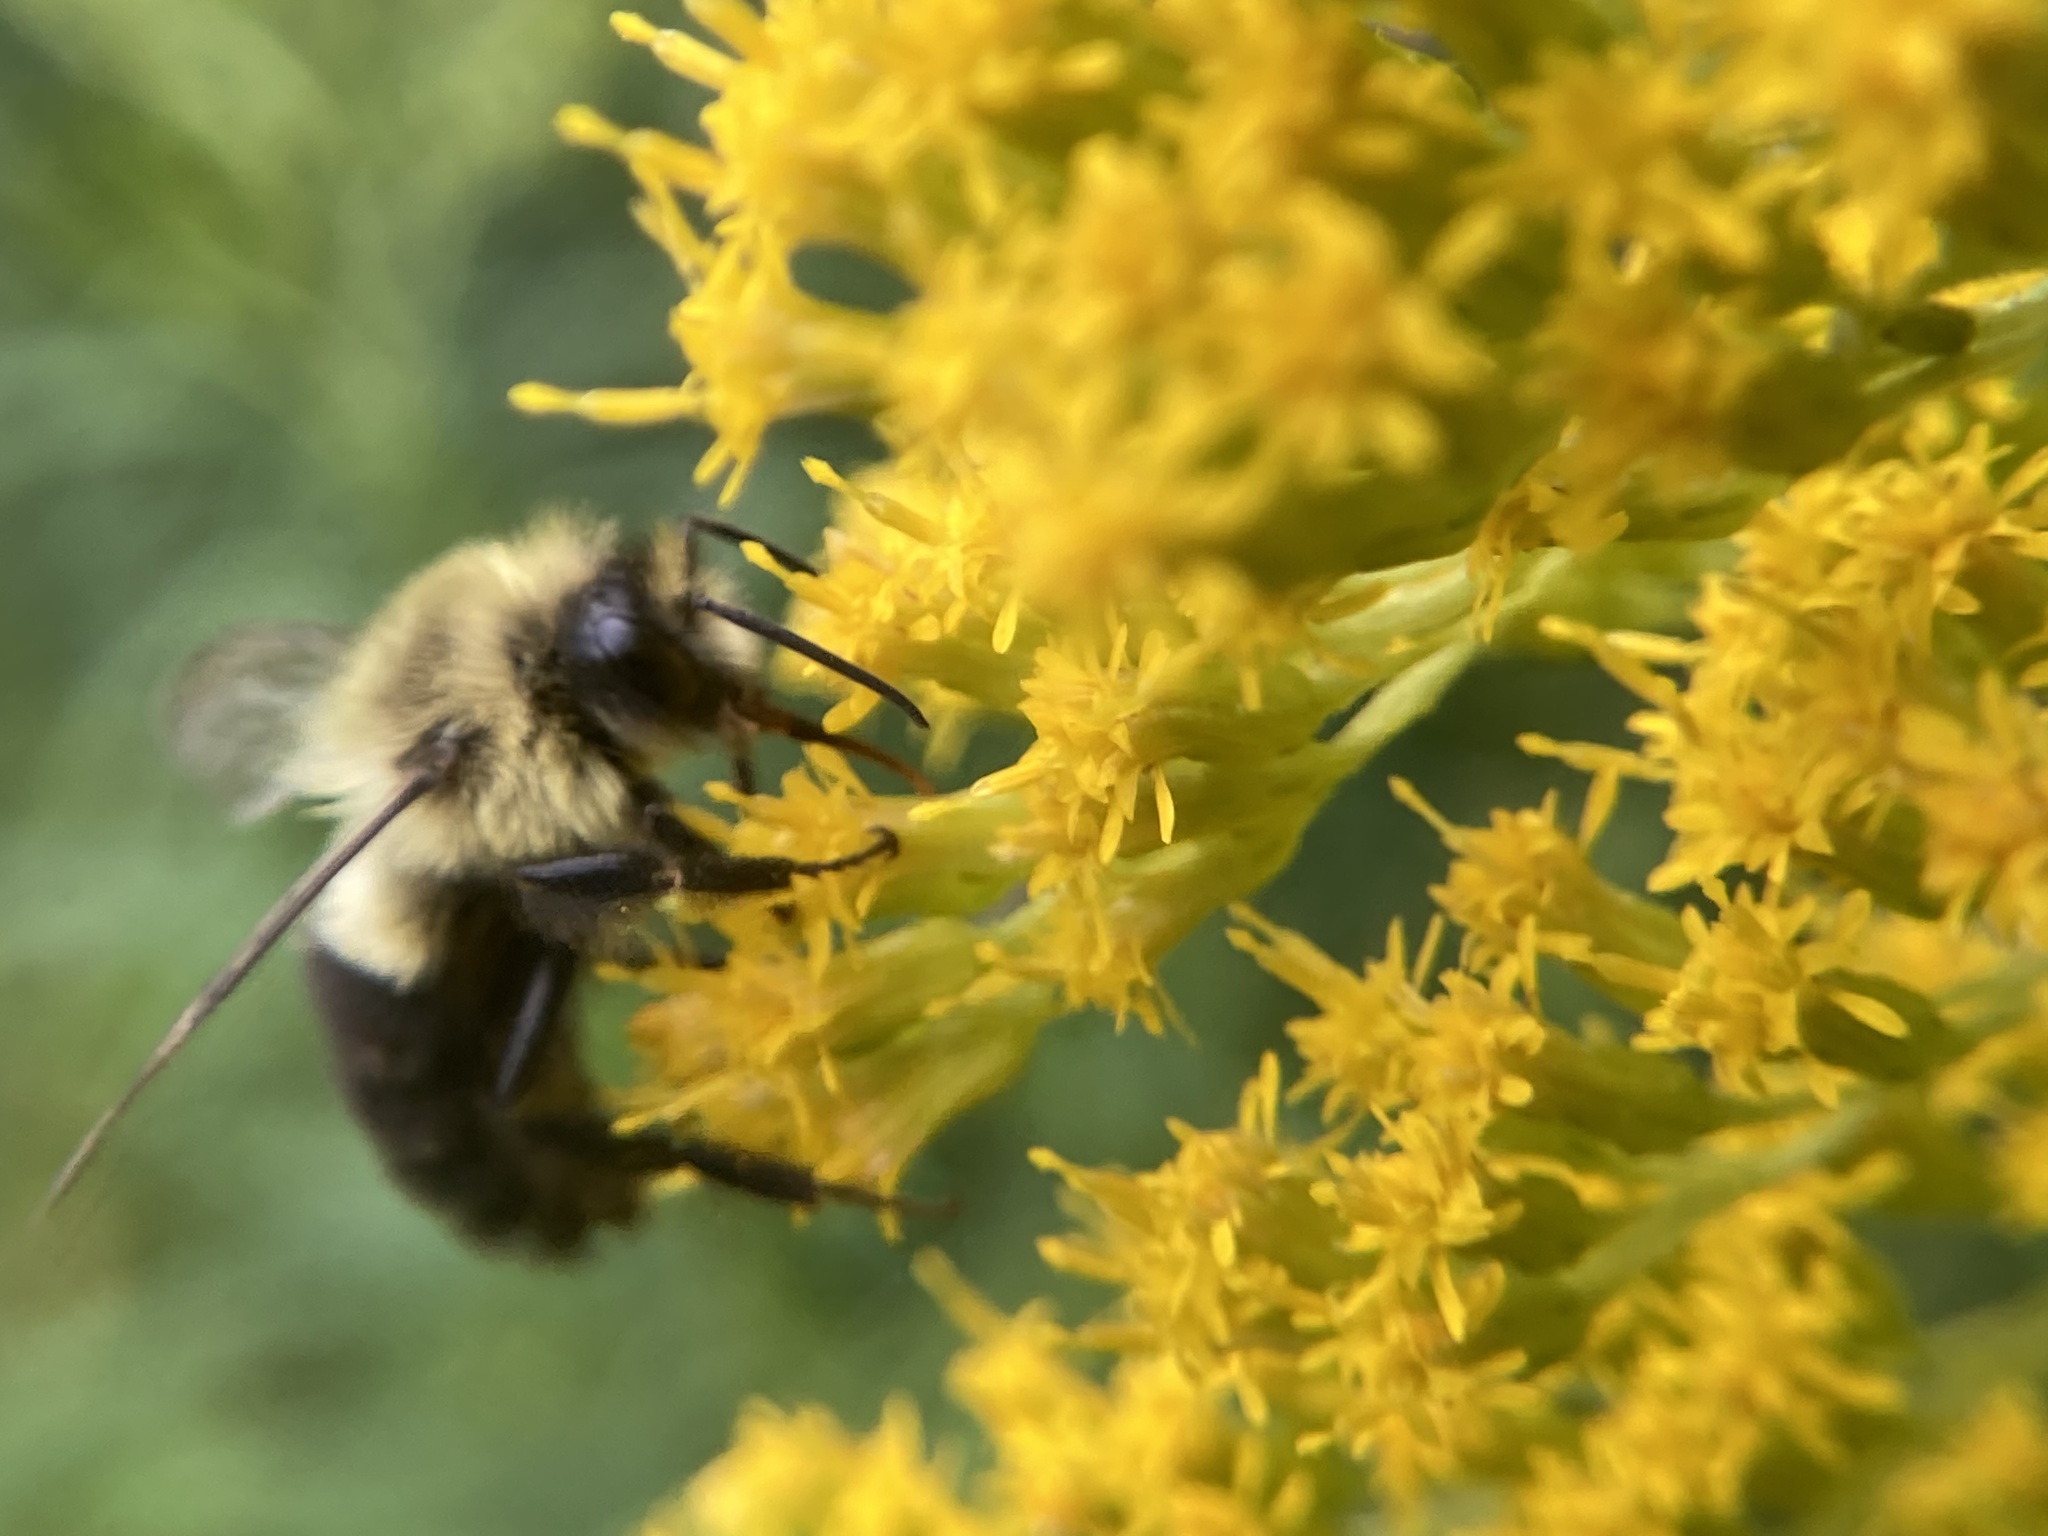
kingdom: Animalia
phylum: Arthropoda
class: Insecta
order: Hymenoptera
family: Apidae
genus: Bombus
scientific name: Bombus impatiens
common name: Common eastern bumble bee
